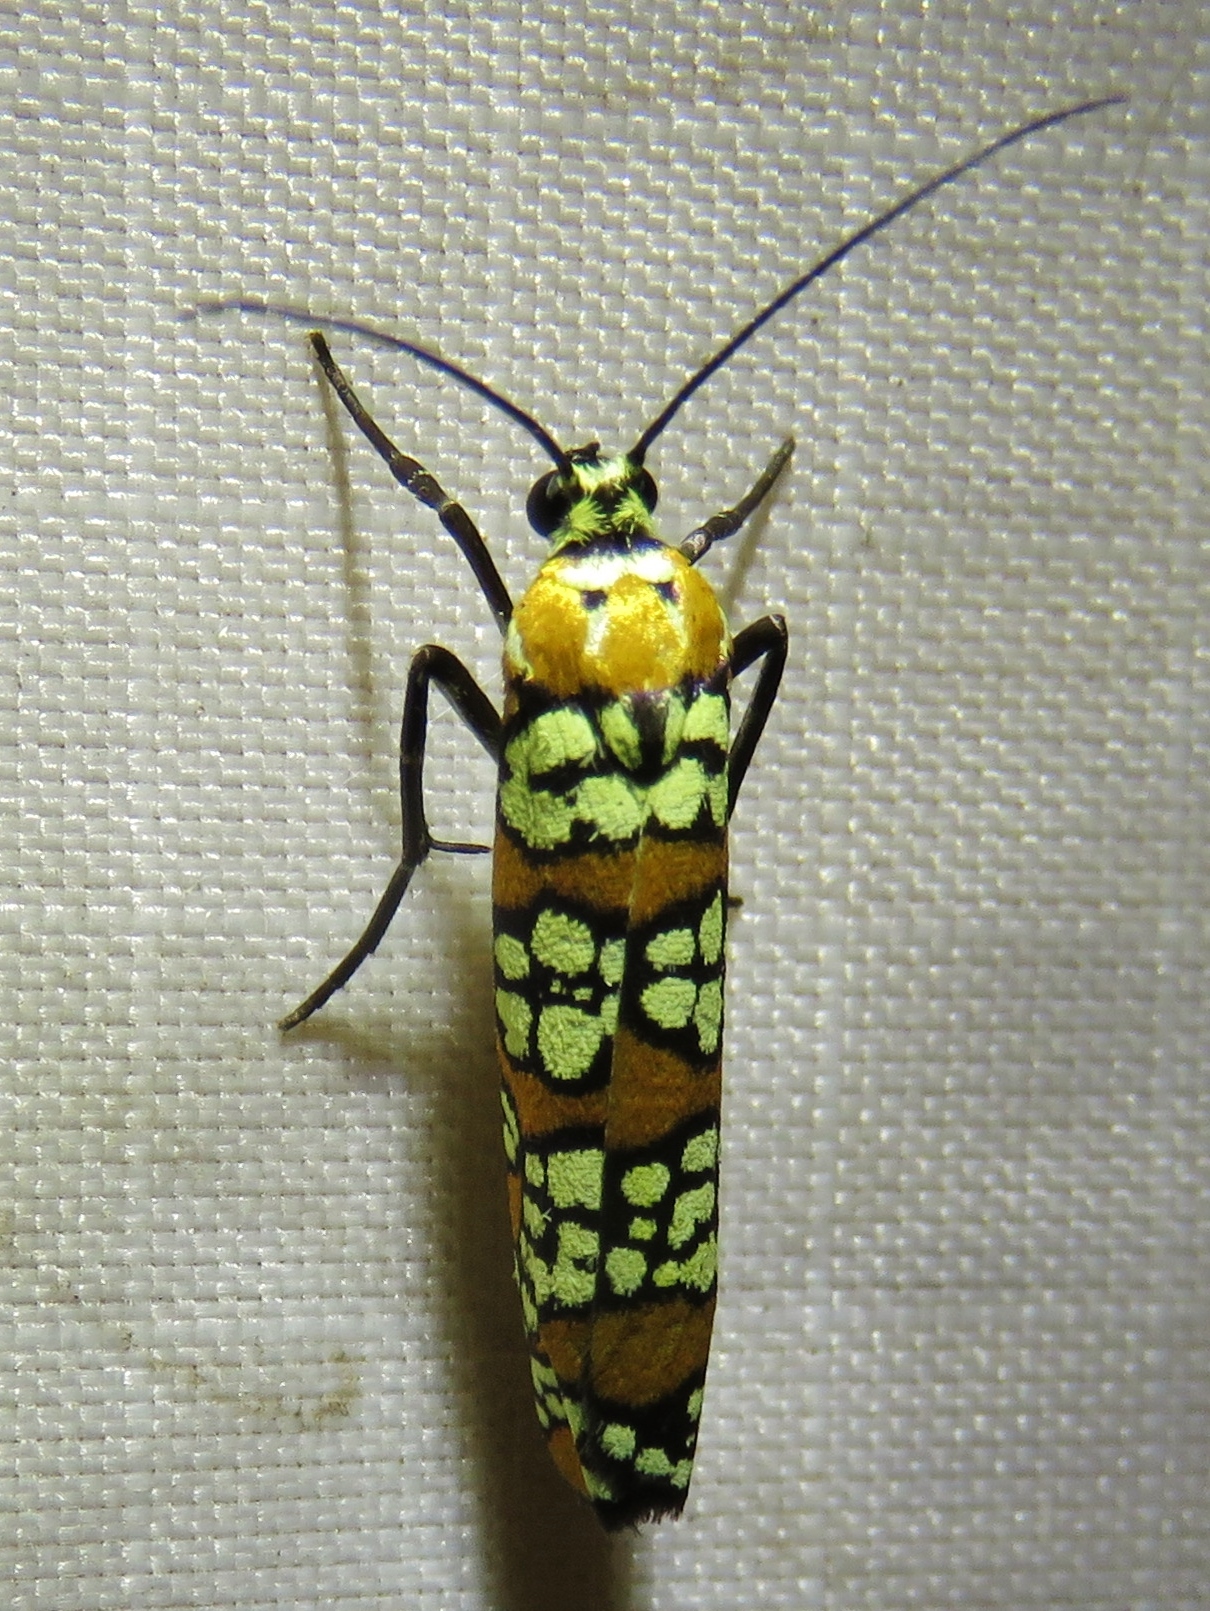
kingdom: Animalia
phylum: Arthropoda
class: Insecta
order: Lepidoptera
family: Attevidae
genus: Atteva
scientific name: Atteva punctella
